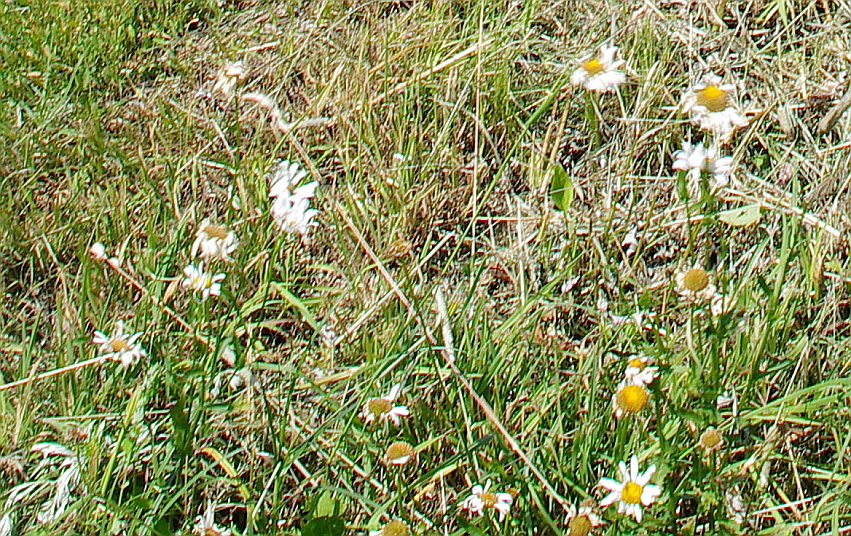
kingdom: Plantae
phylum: Tracheophyta
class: Magnoliopsida
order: Asterales
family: Asteraceae
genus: Leucanthemum
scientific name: Leucanthemum vulgare
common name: Oxeye daisy
